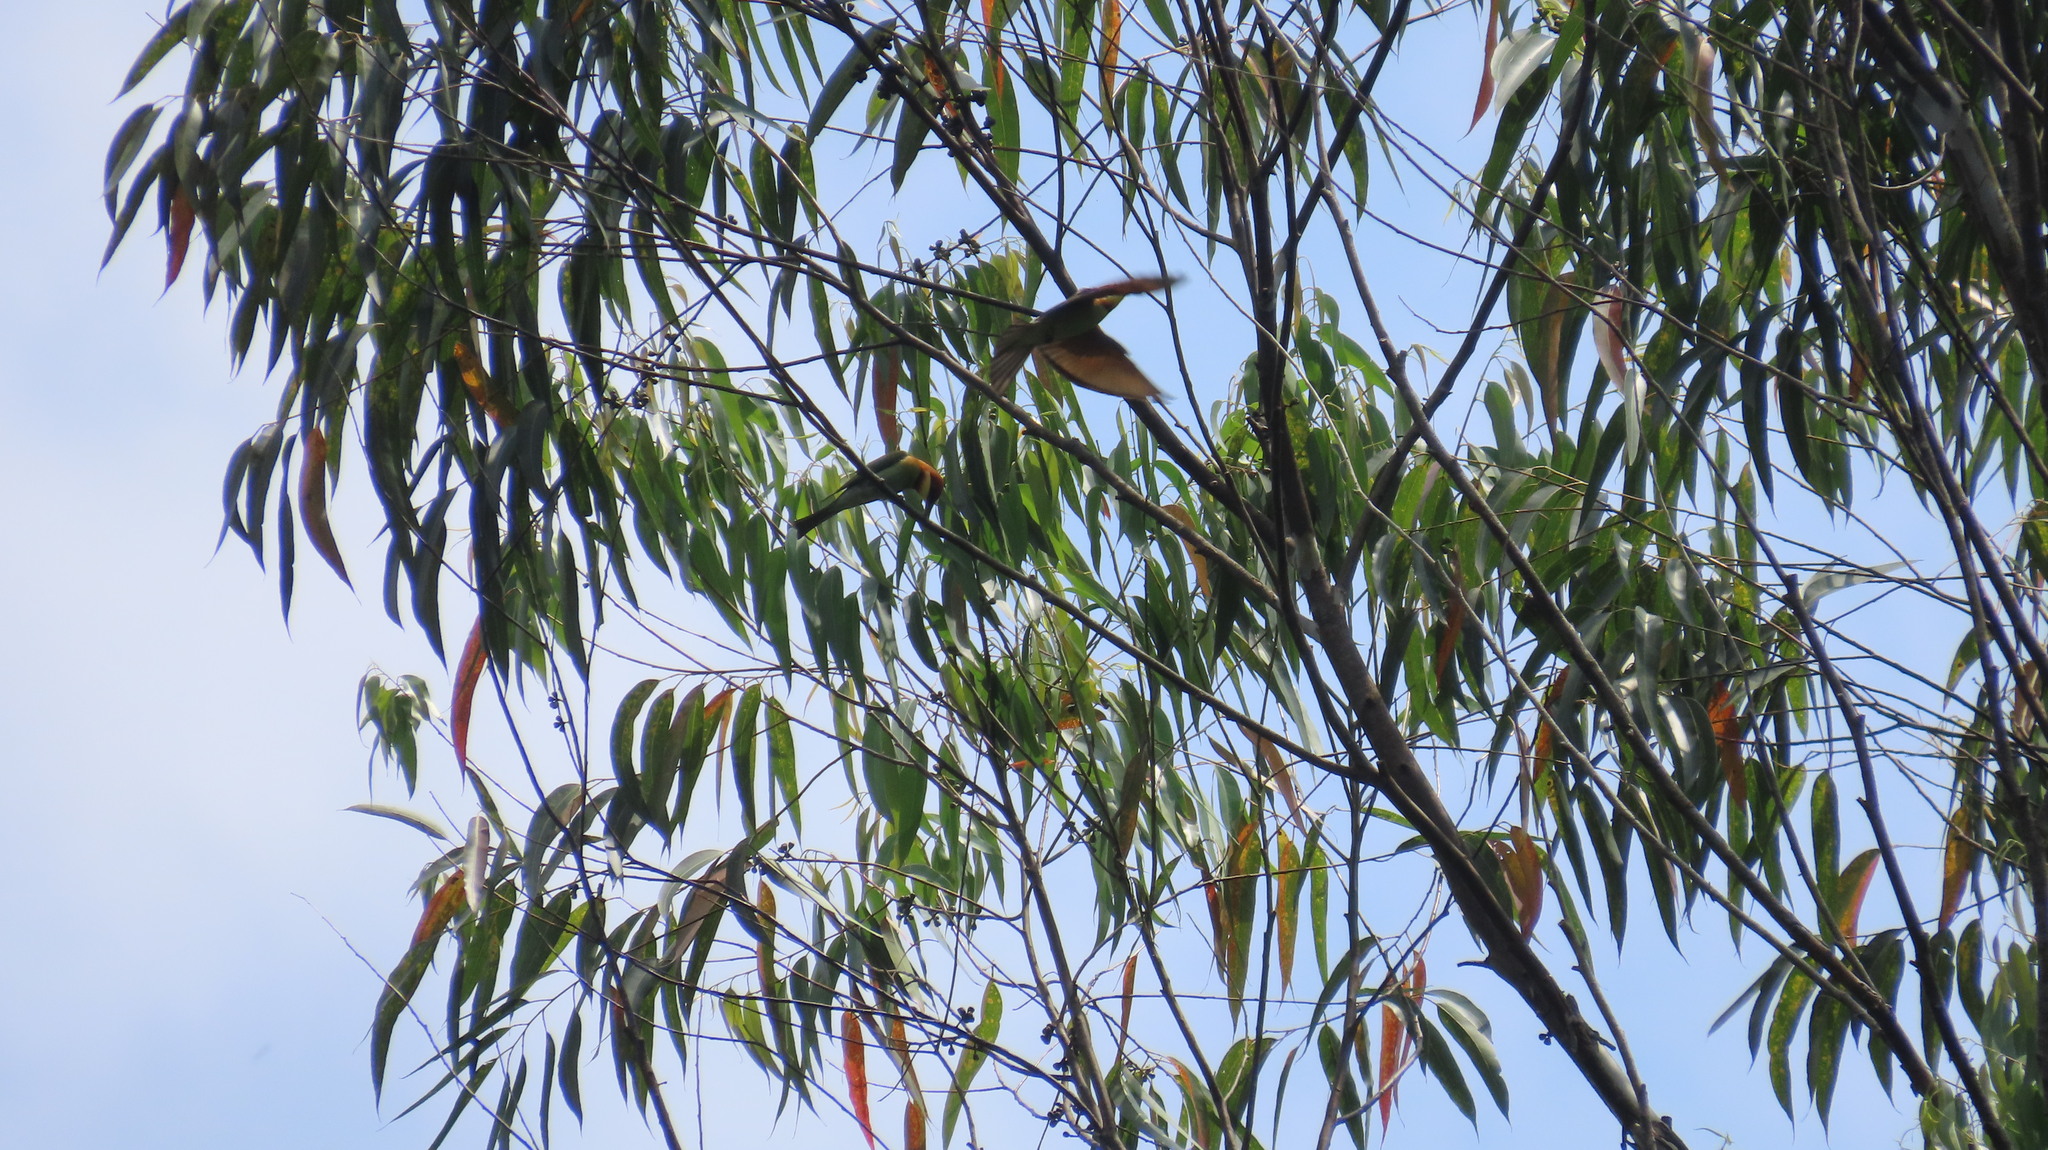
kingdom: Animalia
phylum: Chordata
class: Aves
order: Coraciiformes
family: Meropidae
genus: Merops
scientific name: Merops leschenaulti
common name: Chestnut-headed bee-eater
